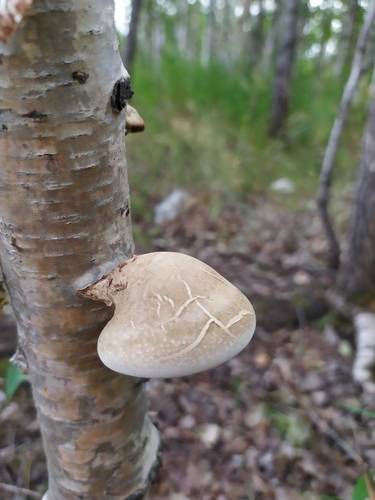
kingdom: Fungi
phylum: Basidiomycota
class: Agaricomycetes
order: Polyporales
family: Fomitopsidaceae
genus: Fomitopsis
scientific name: Fomitopsis betulina
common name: Birch polypore
